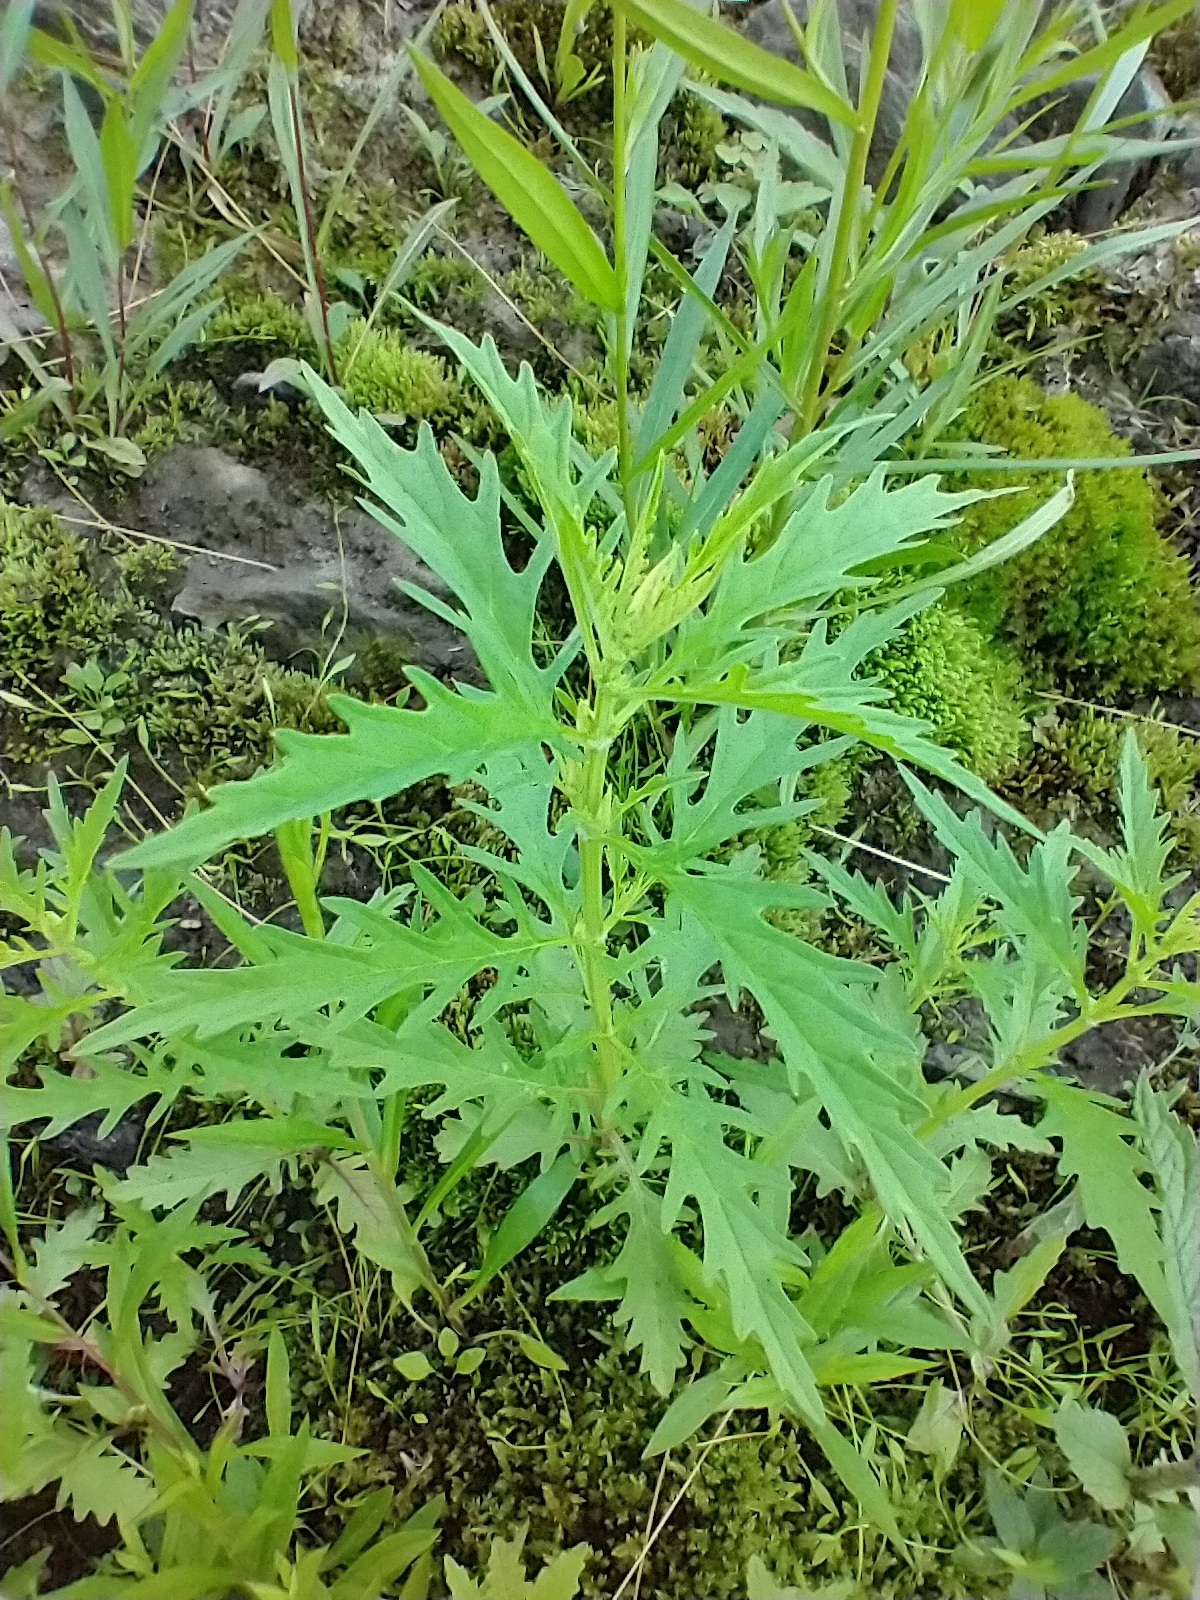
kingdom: Plantae
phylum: Tracheophyta
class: Magnoliopsida
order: Lamiales
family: Lamiaceae
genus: Lycopus
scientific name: Lycopus americanus
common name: American bugleweed
